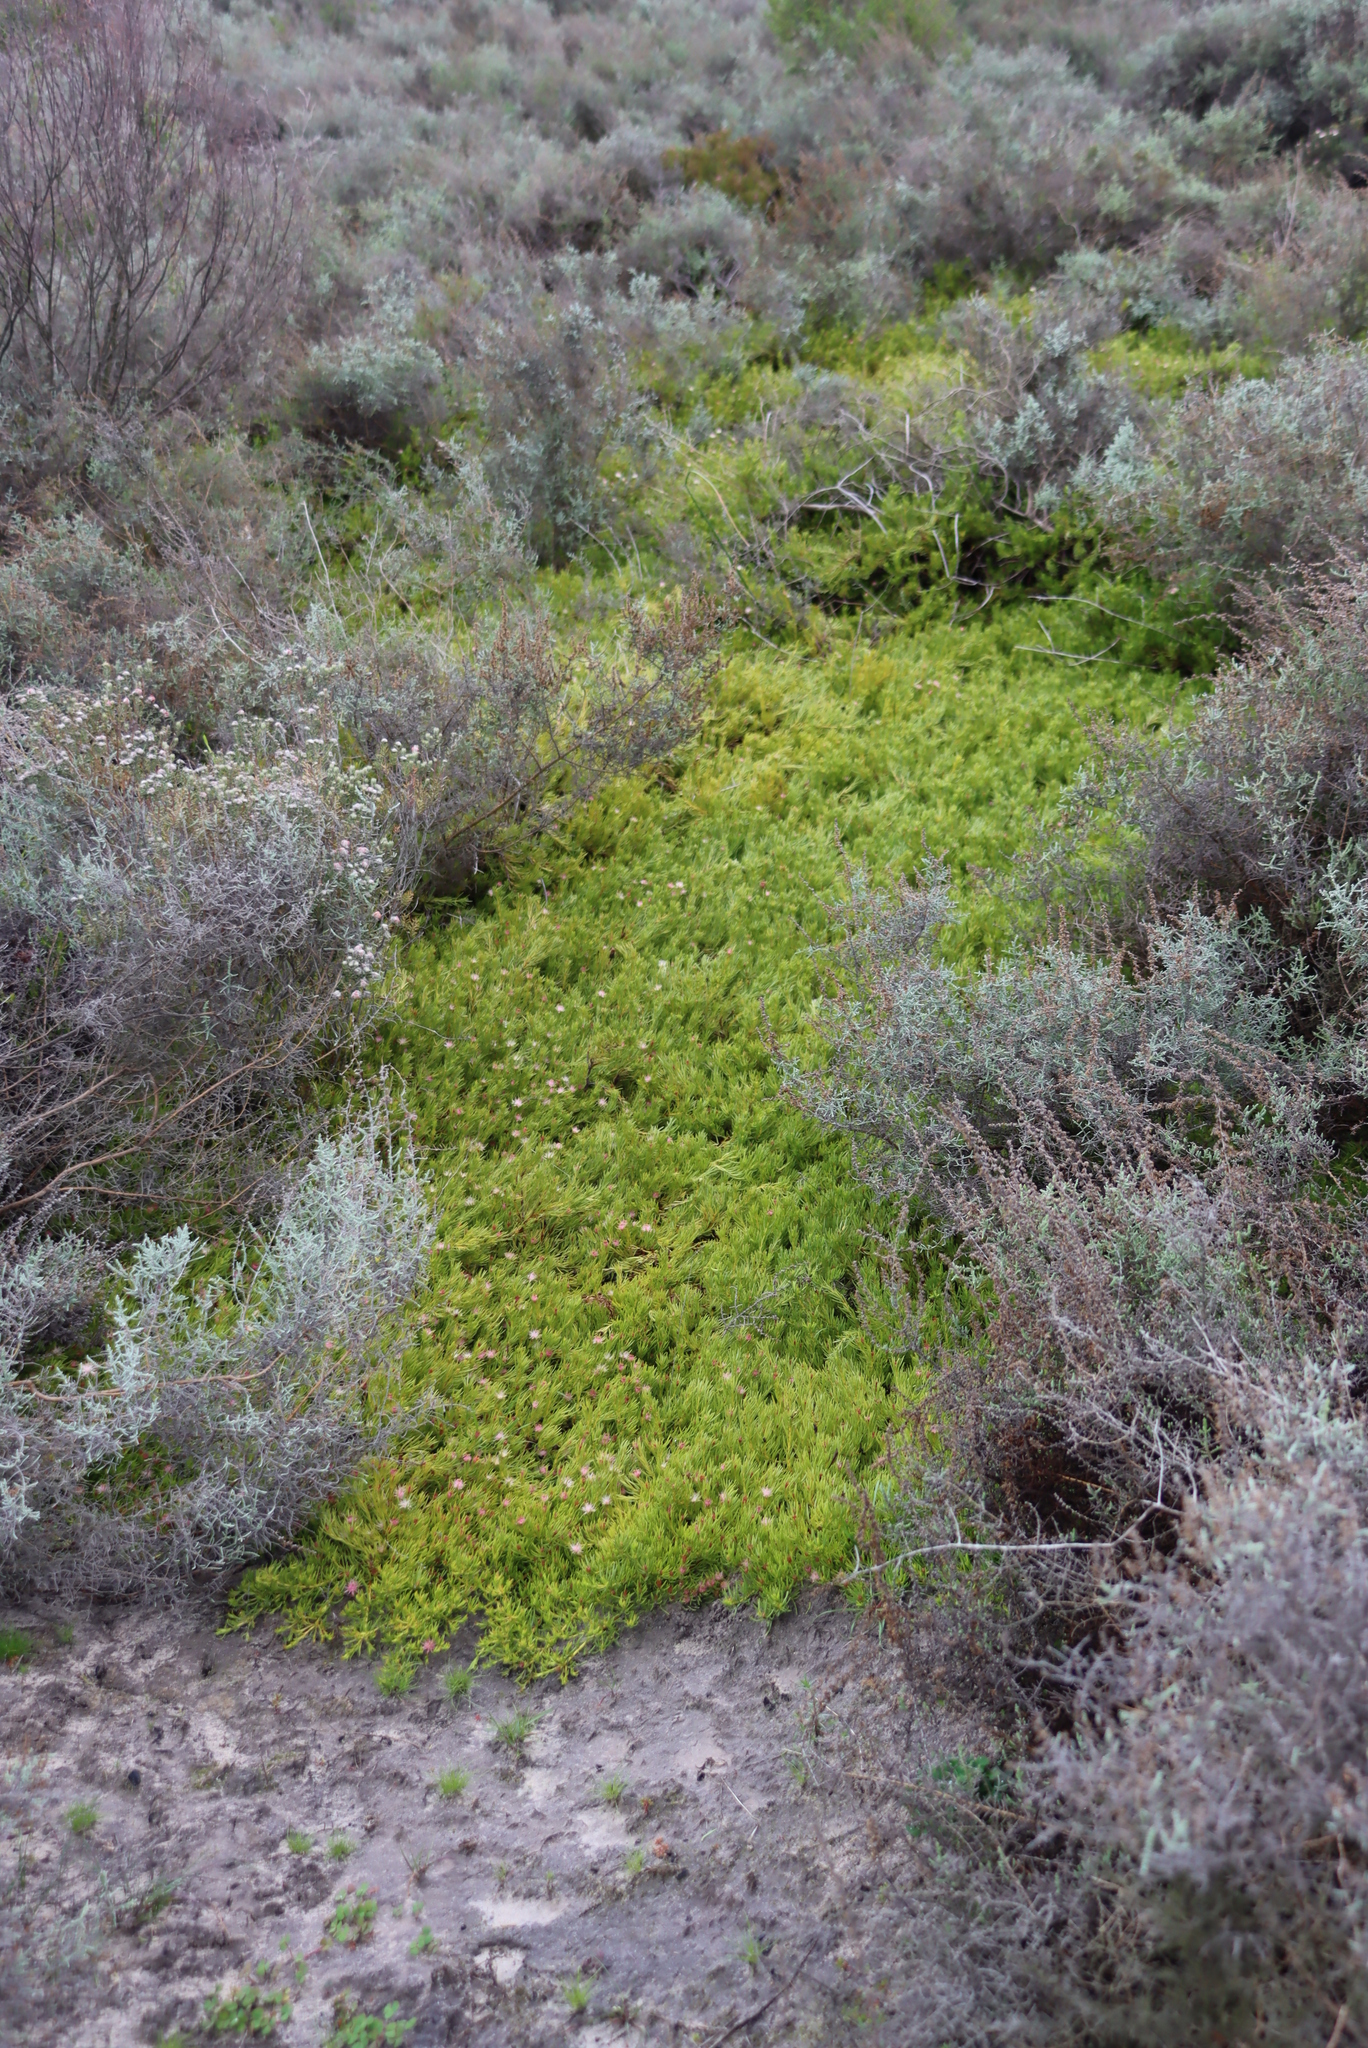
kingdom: Plantae
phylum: Tracheophyta
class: Magnoliopsida
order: Proteales
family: Proteaceae
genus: Diastella
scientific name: Diastella buekii
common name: Franschhoek silkypuff
